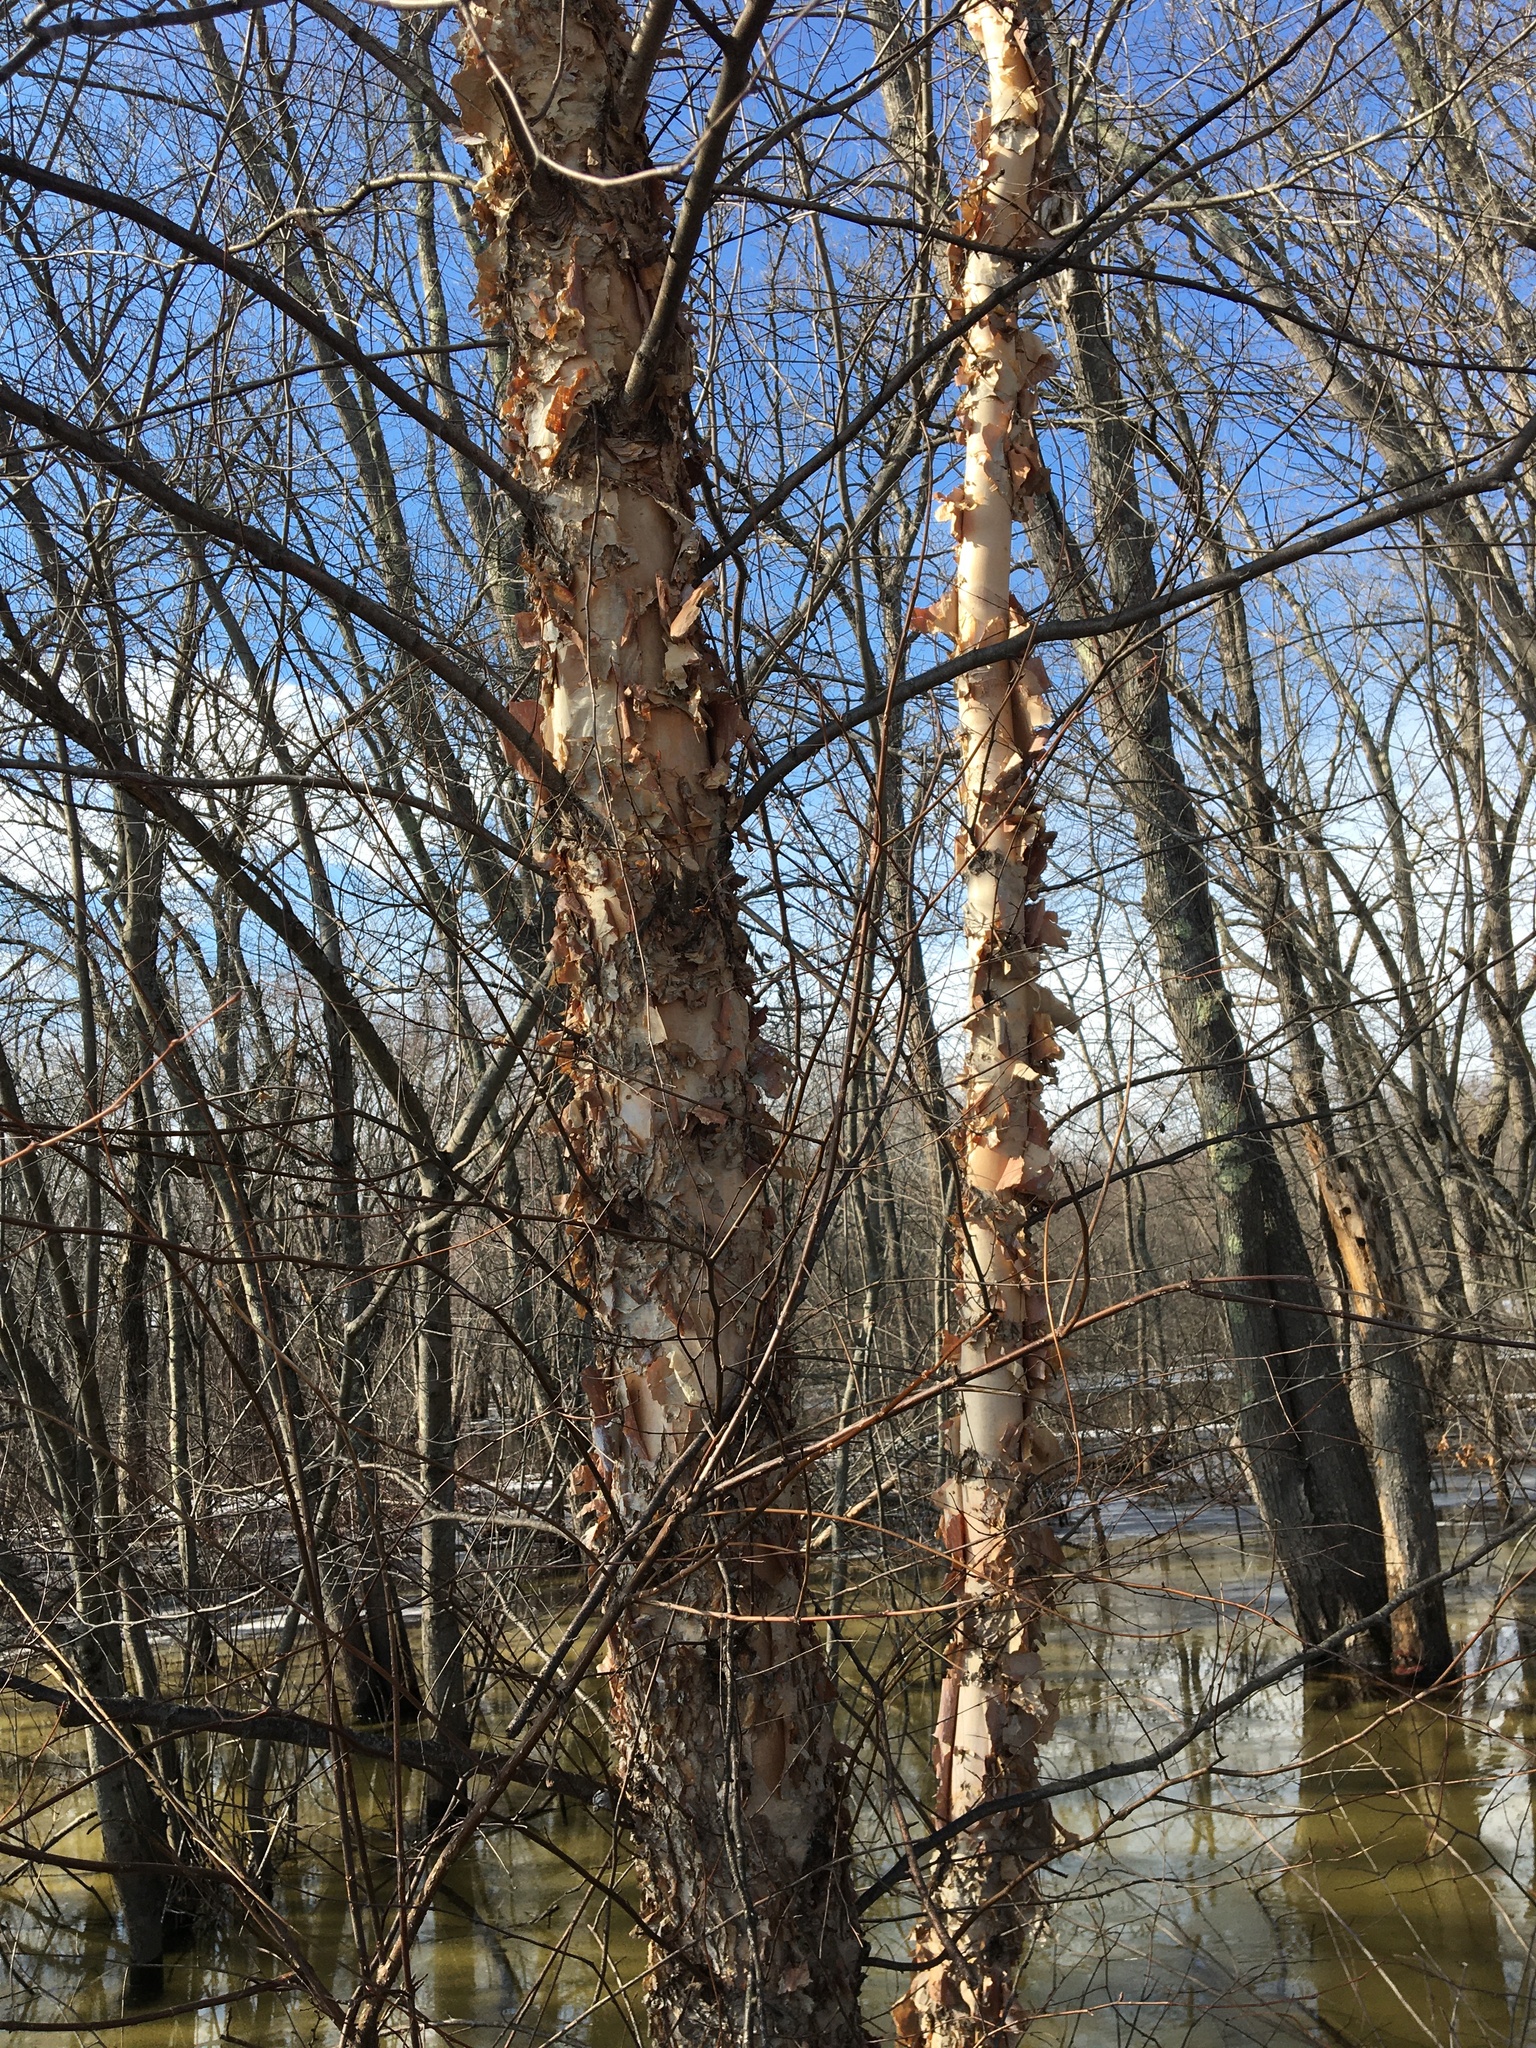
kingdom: Plantae
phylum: Tracheophyta
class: Magnoliopsida
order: Fagales
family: Betulaceae
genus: Betula
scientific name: Betula nigra
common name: Black birch
